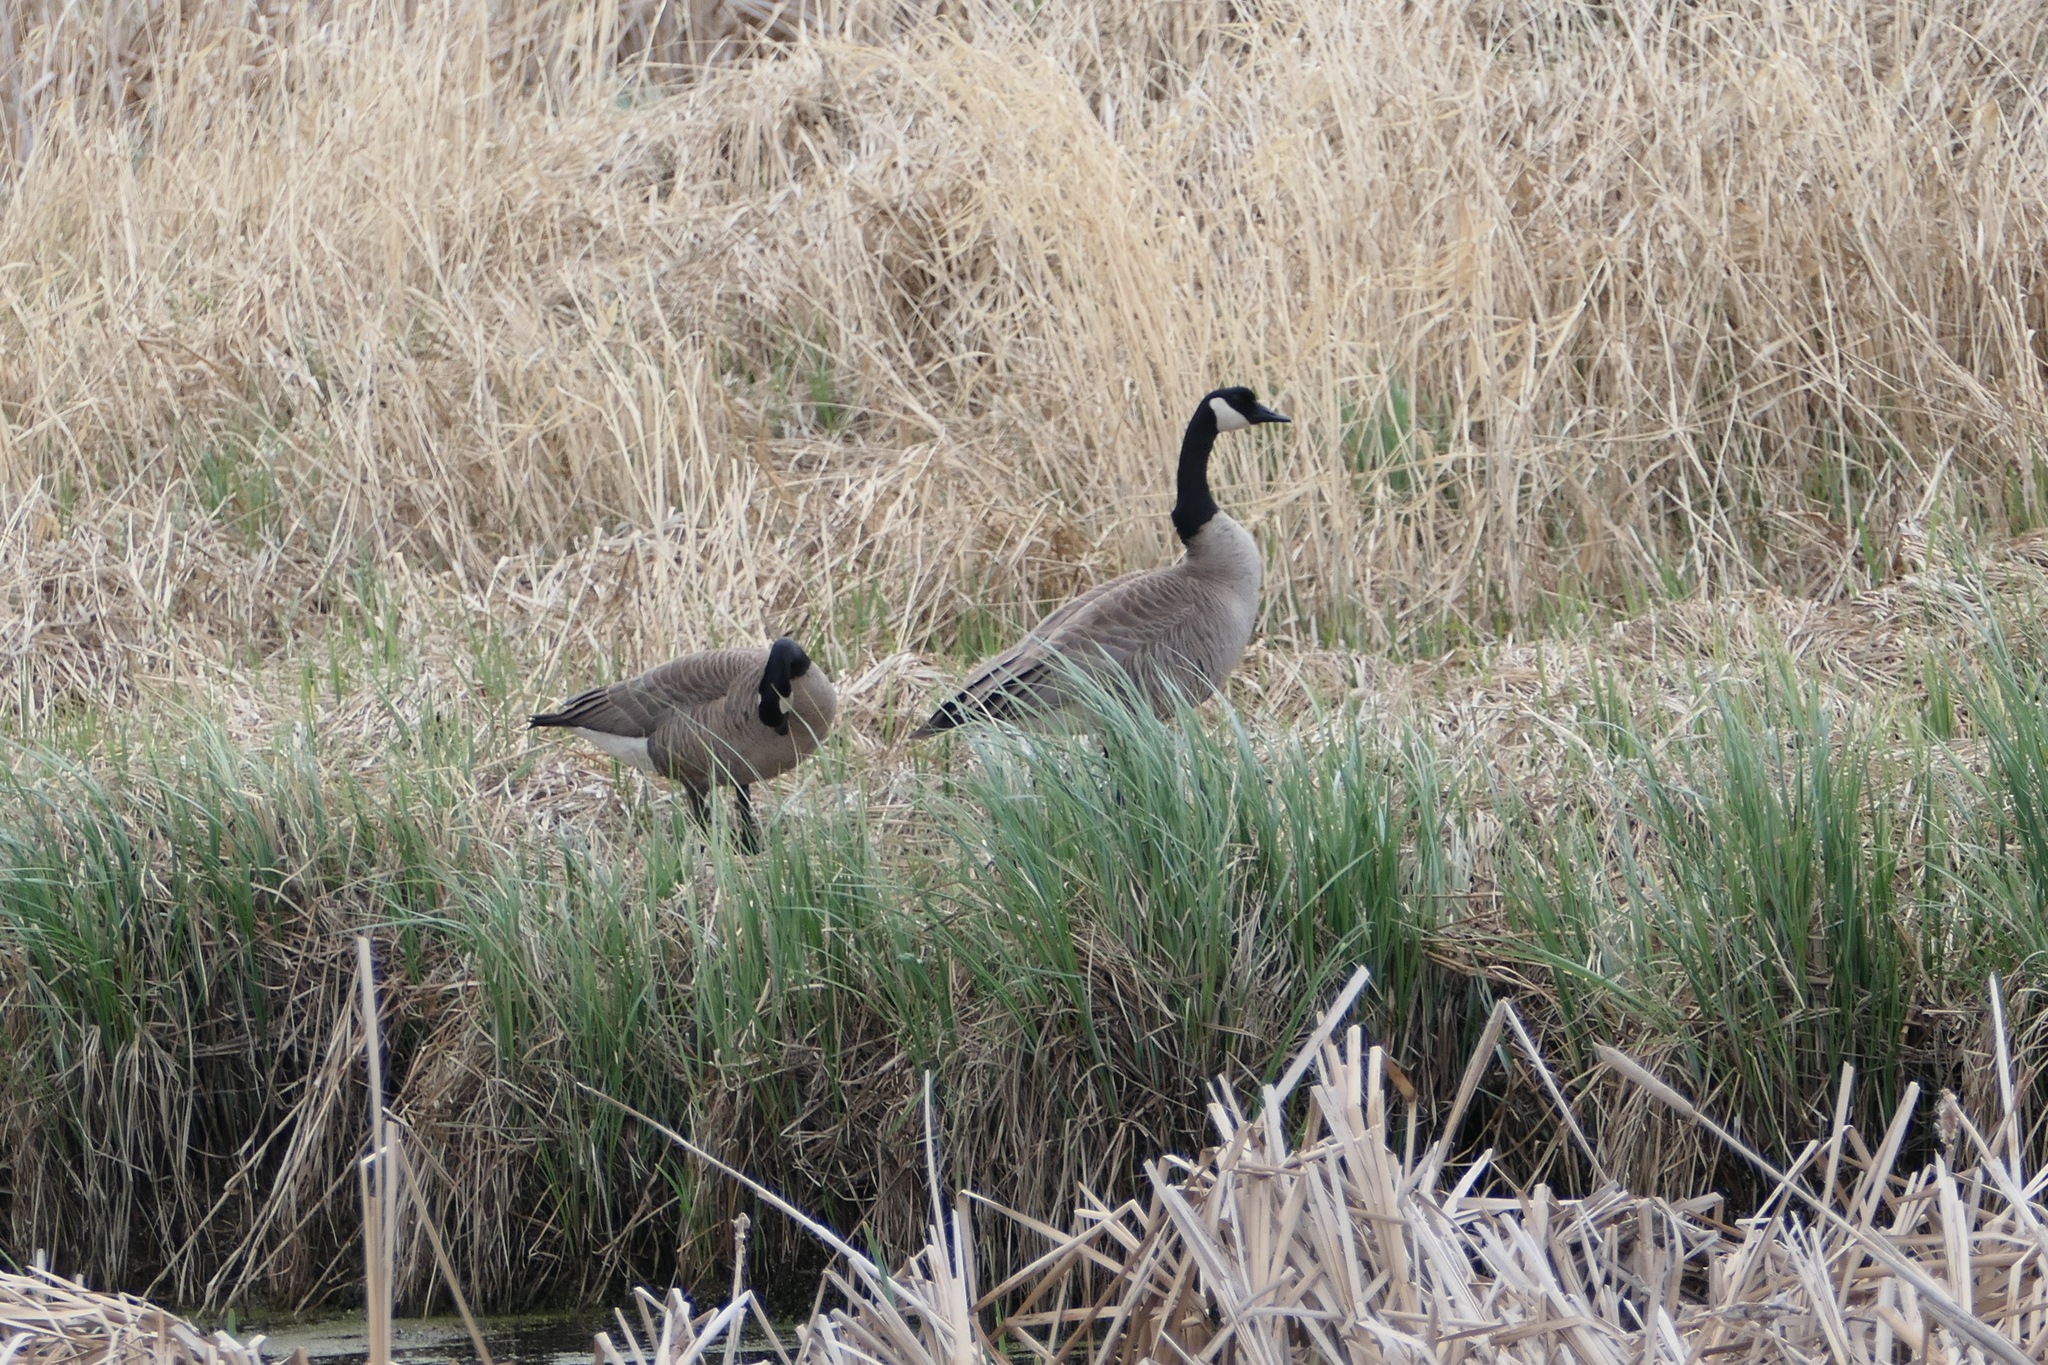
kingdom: Animalia
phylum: Chordata
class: Aves
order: Anseriformes
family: Anatidae
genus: Branta
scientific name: Branta canadensis
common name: Canada goose
